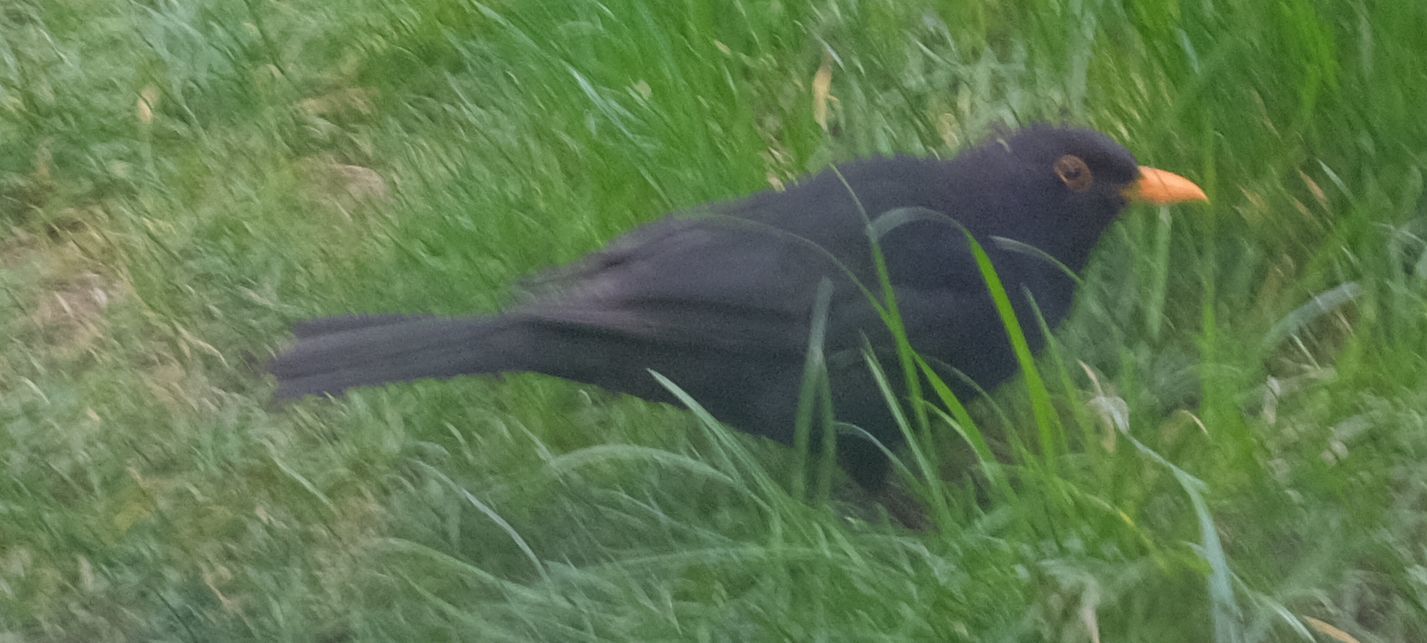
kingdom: Animalia
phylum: Chordata
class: Aves
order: Passeriformes
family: Turdidae
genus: Turdus
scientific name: Turdus merula
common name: Common blackbird
